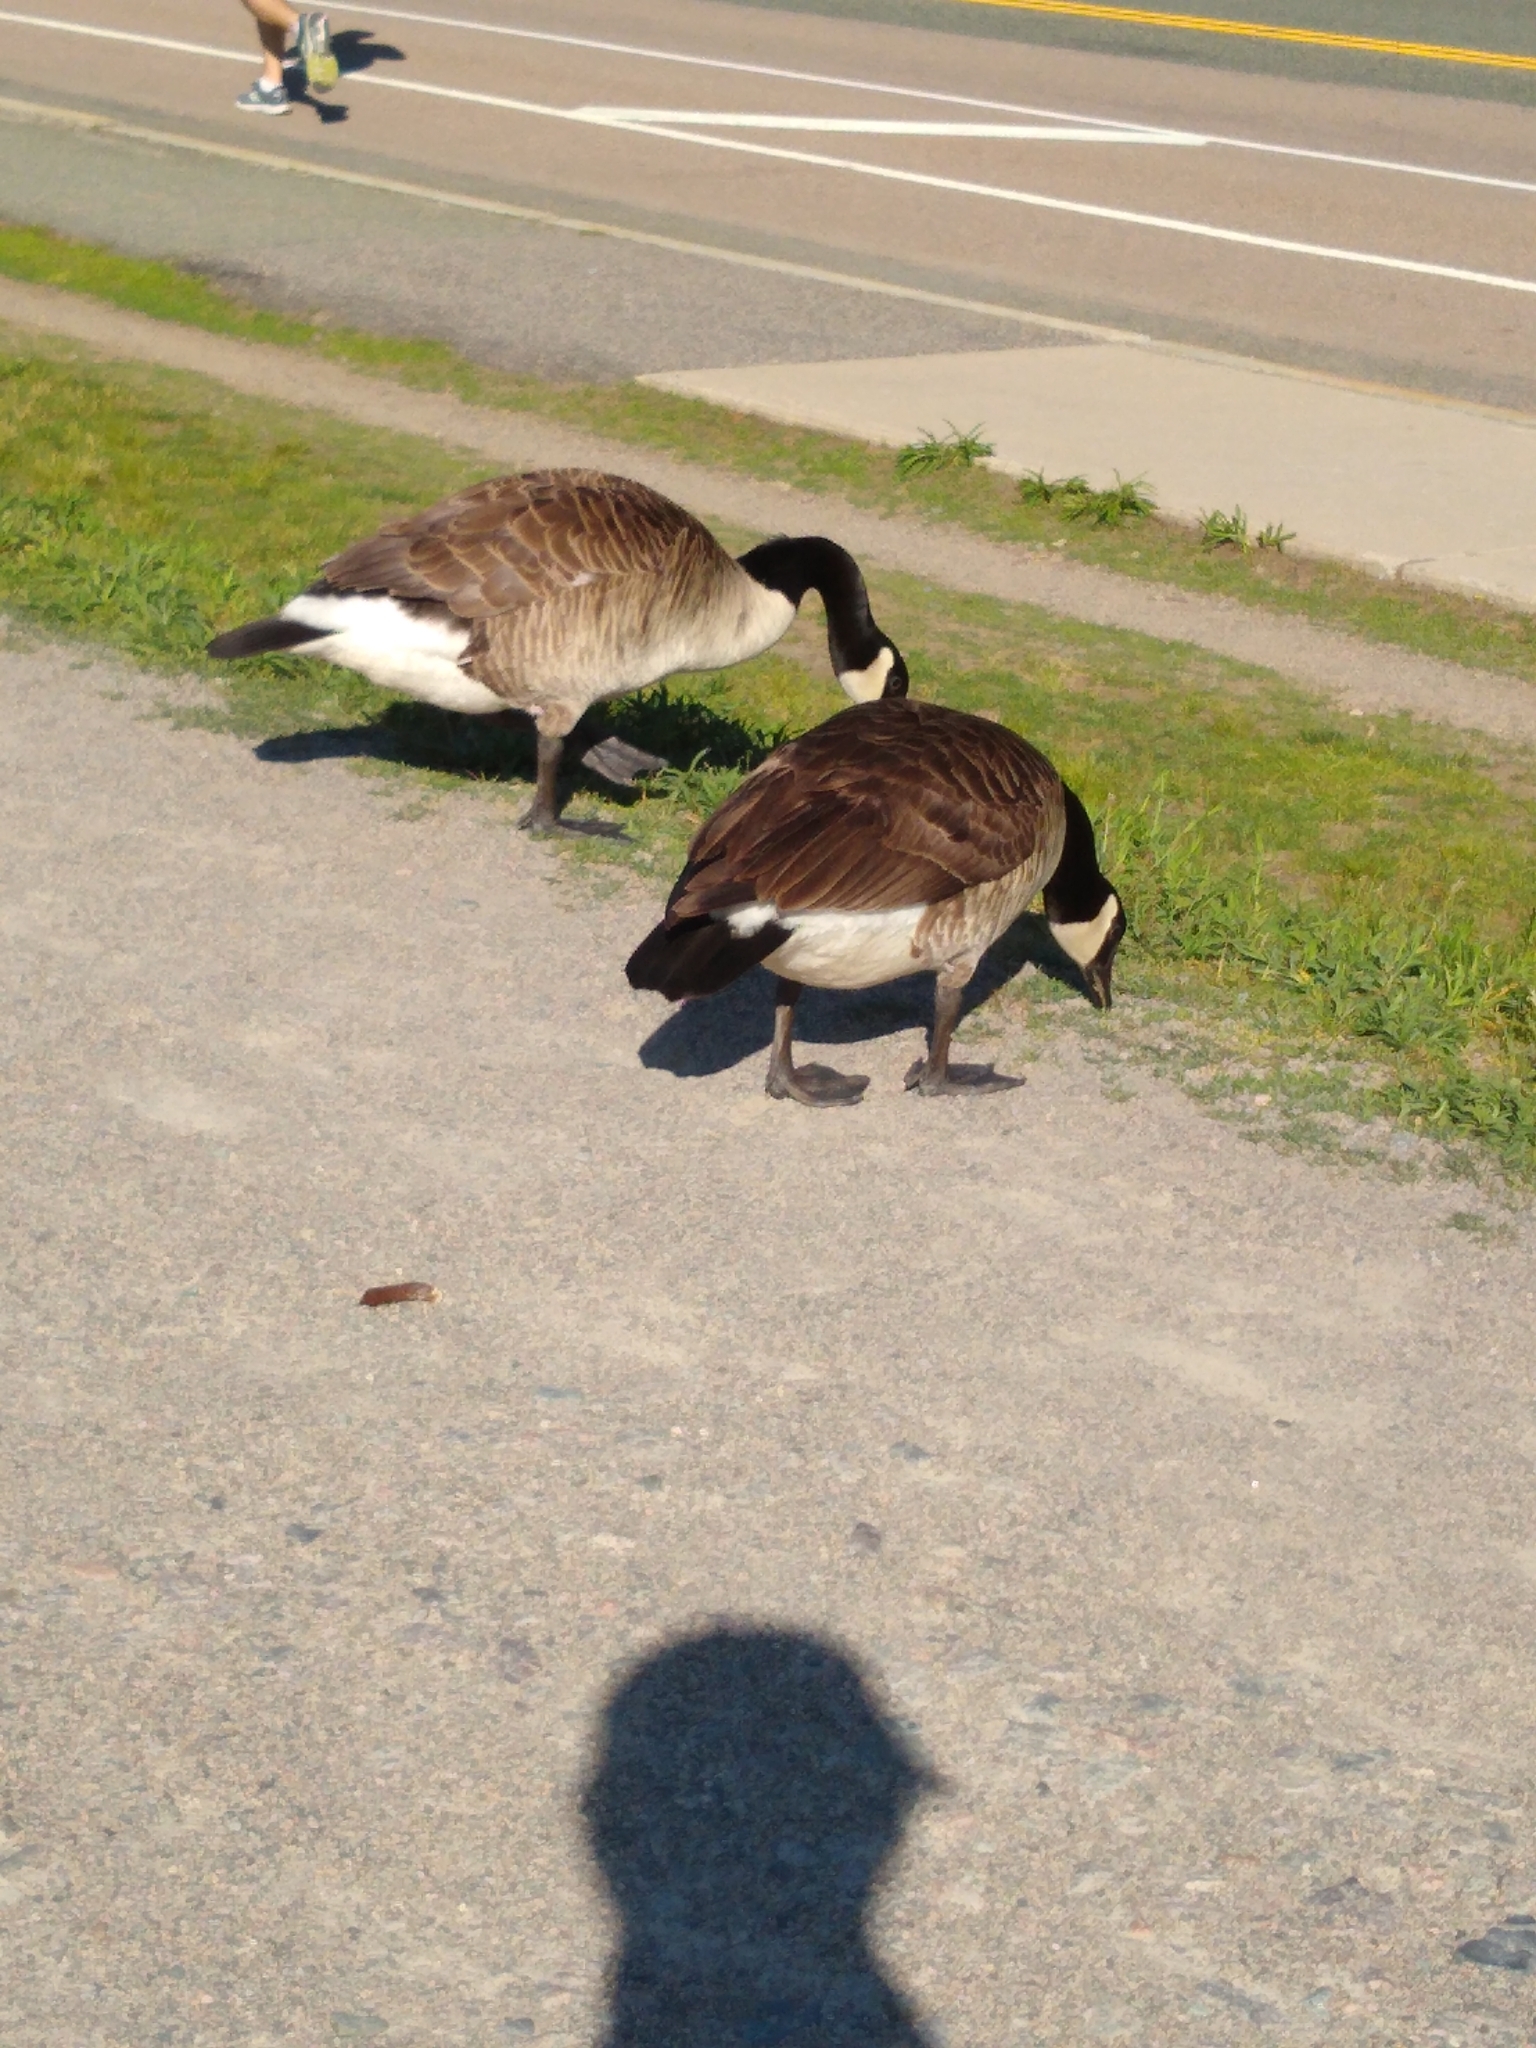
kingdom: Animalia
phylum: Chordata
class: Aves
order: Anseriformes
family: Anatidae
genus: Branta
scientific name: Branta canadensis
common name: Canada goose
